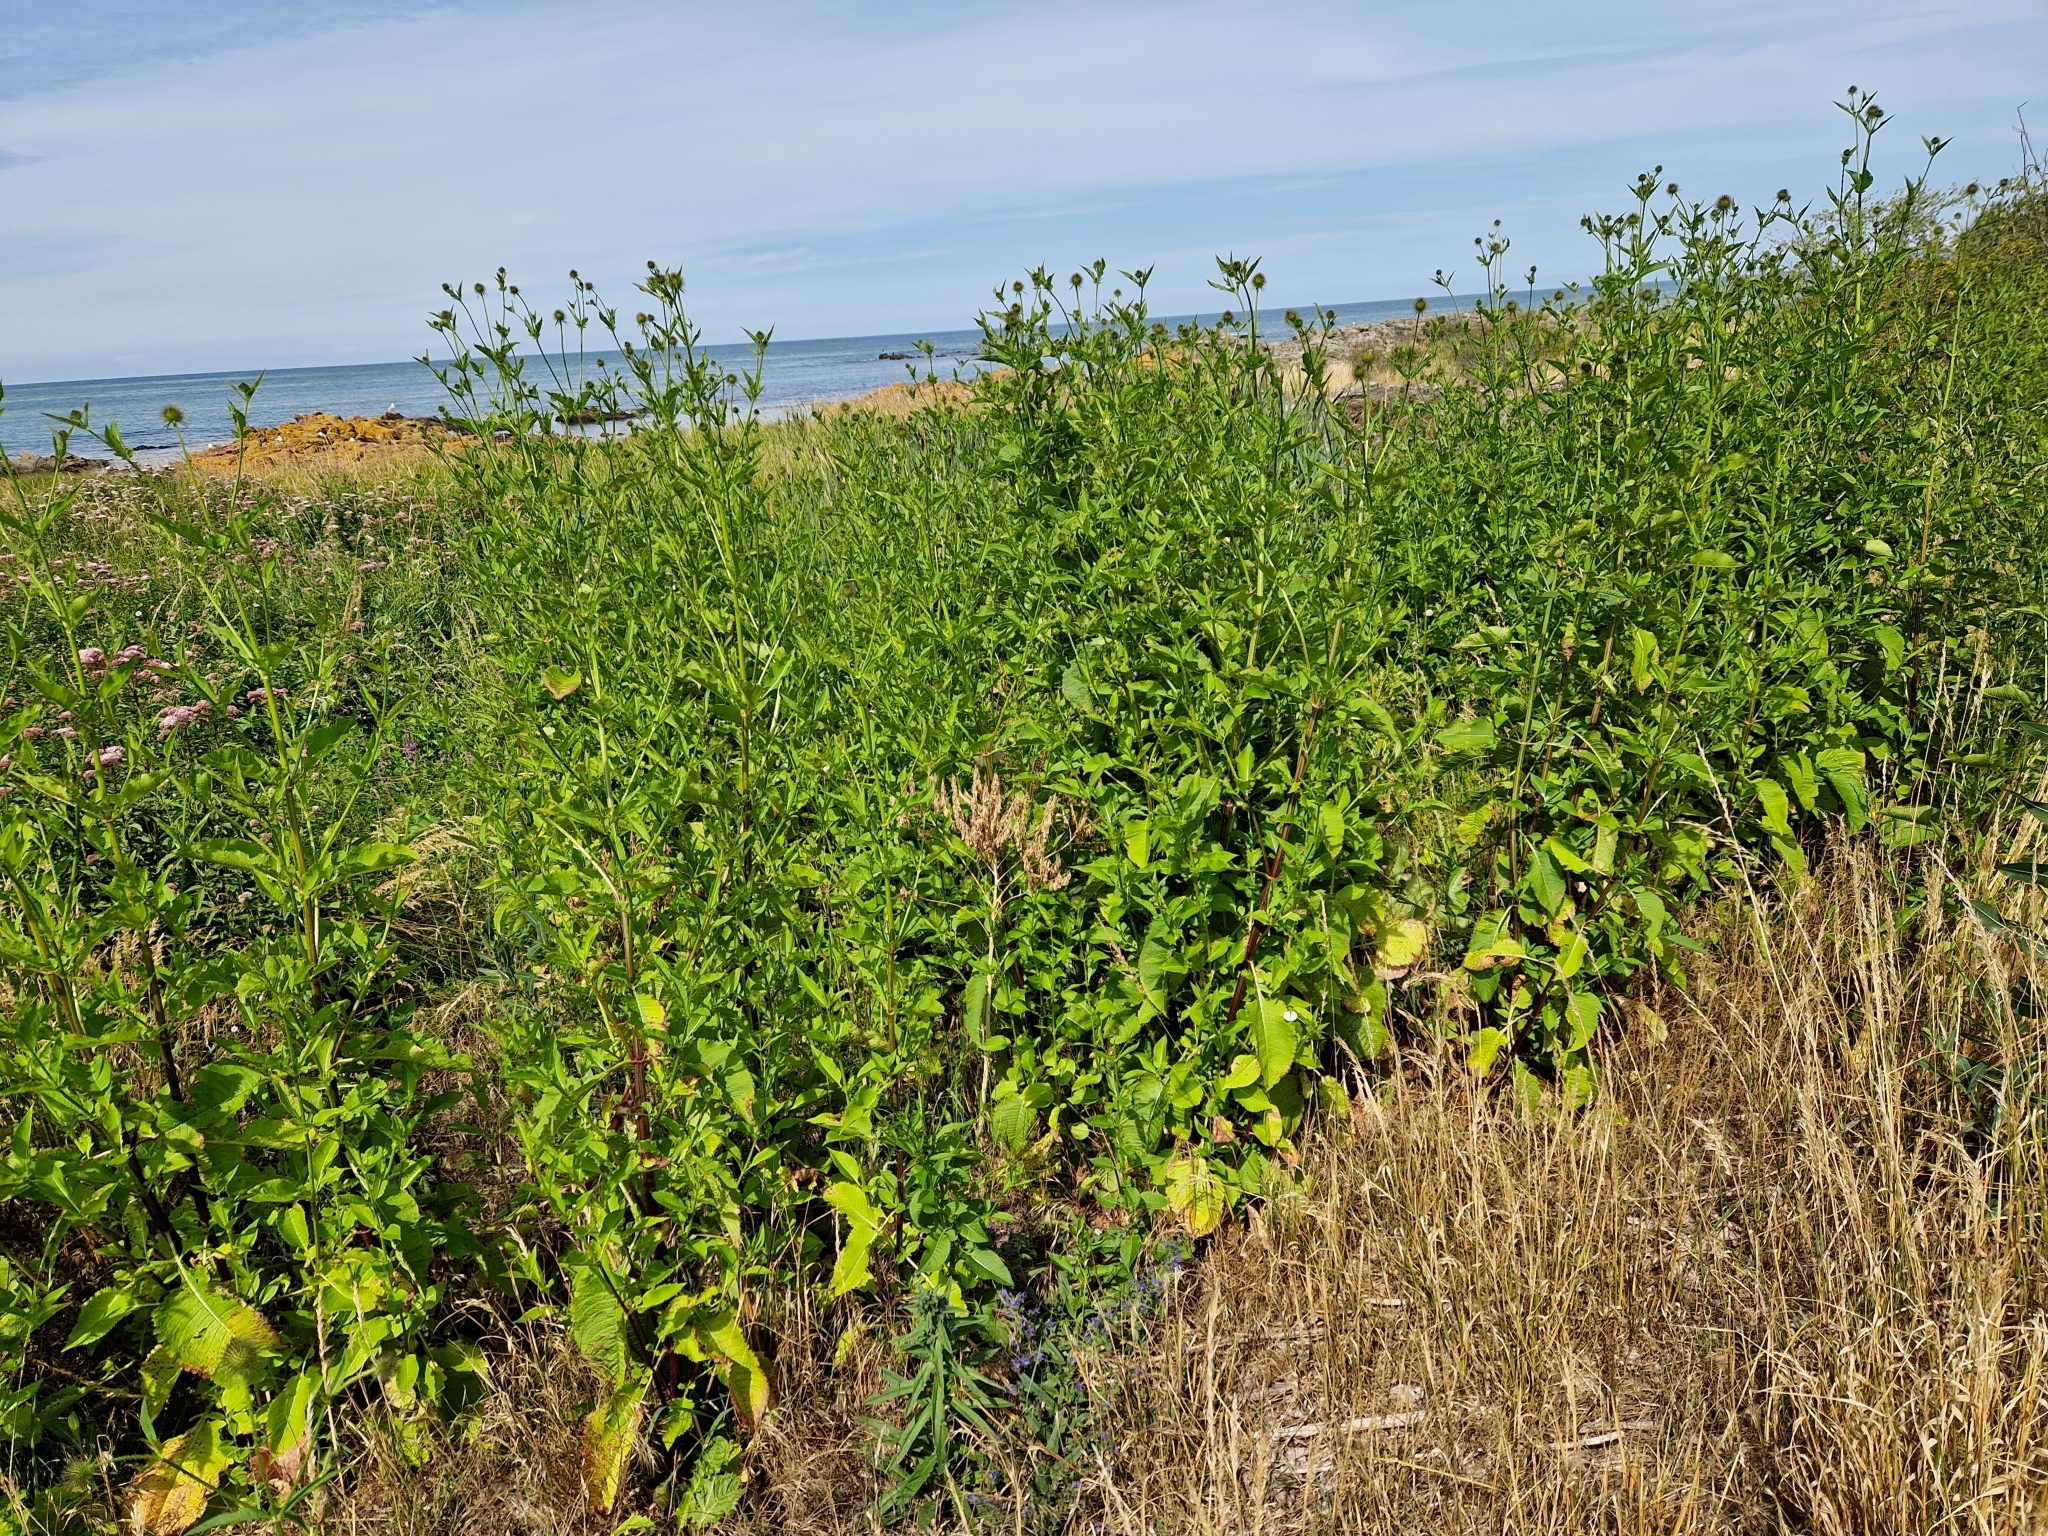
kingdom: Plantae
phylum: Tracheophyta
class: Magnoliopsida
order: Dipsacales
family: Caprifoliaceae
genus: Dipsacus
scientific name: Dipsacus strigosus
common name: Yellow-flowered teasel
